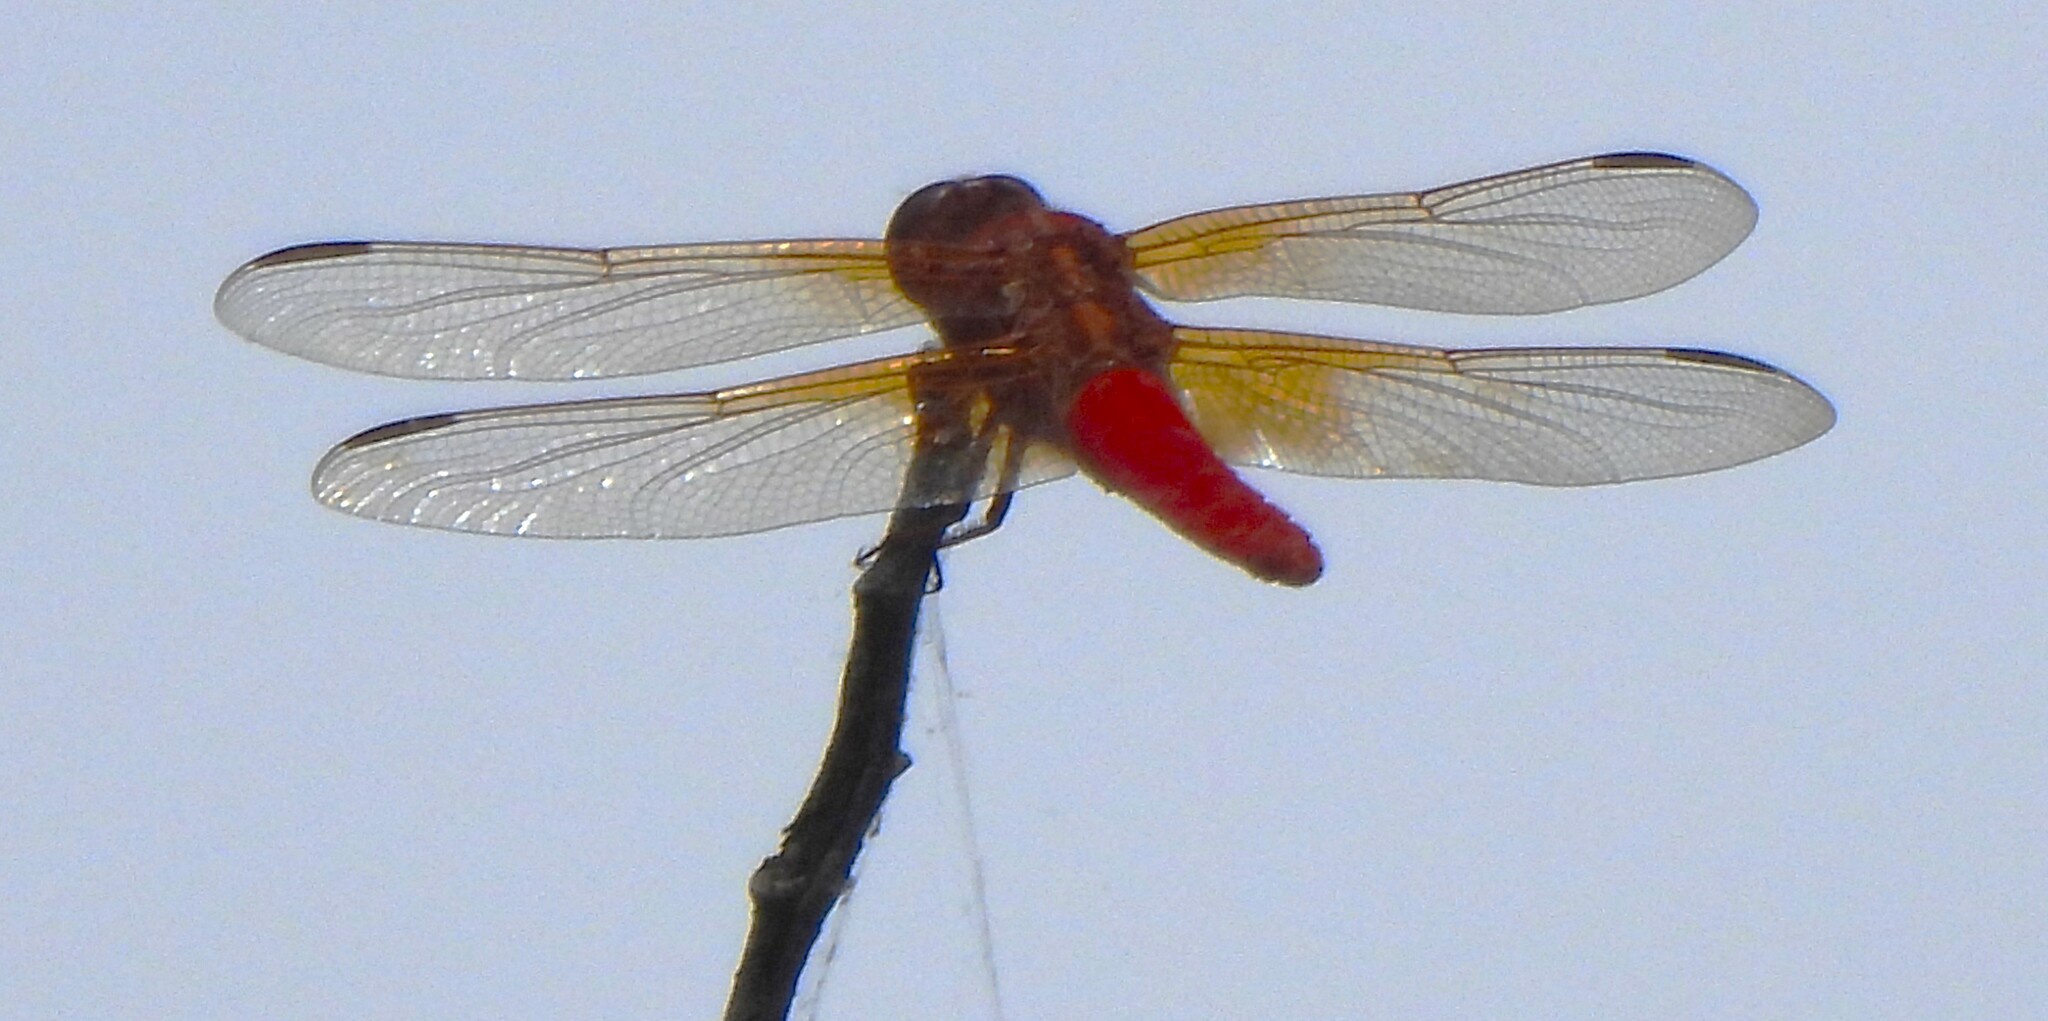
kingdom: Animalia
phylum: Arthropoda
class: Insecta
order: Odonata
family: Libellulidae
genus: Libellula
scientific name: Libellula croceipennis
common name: Neon skimmer
